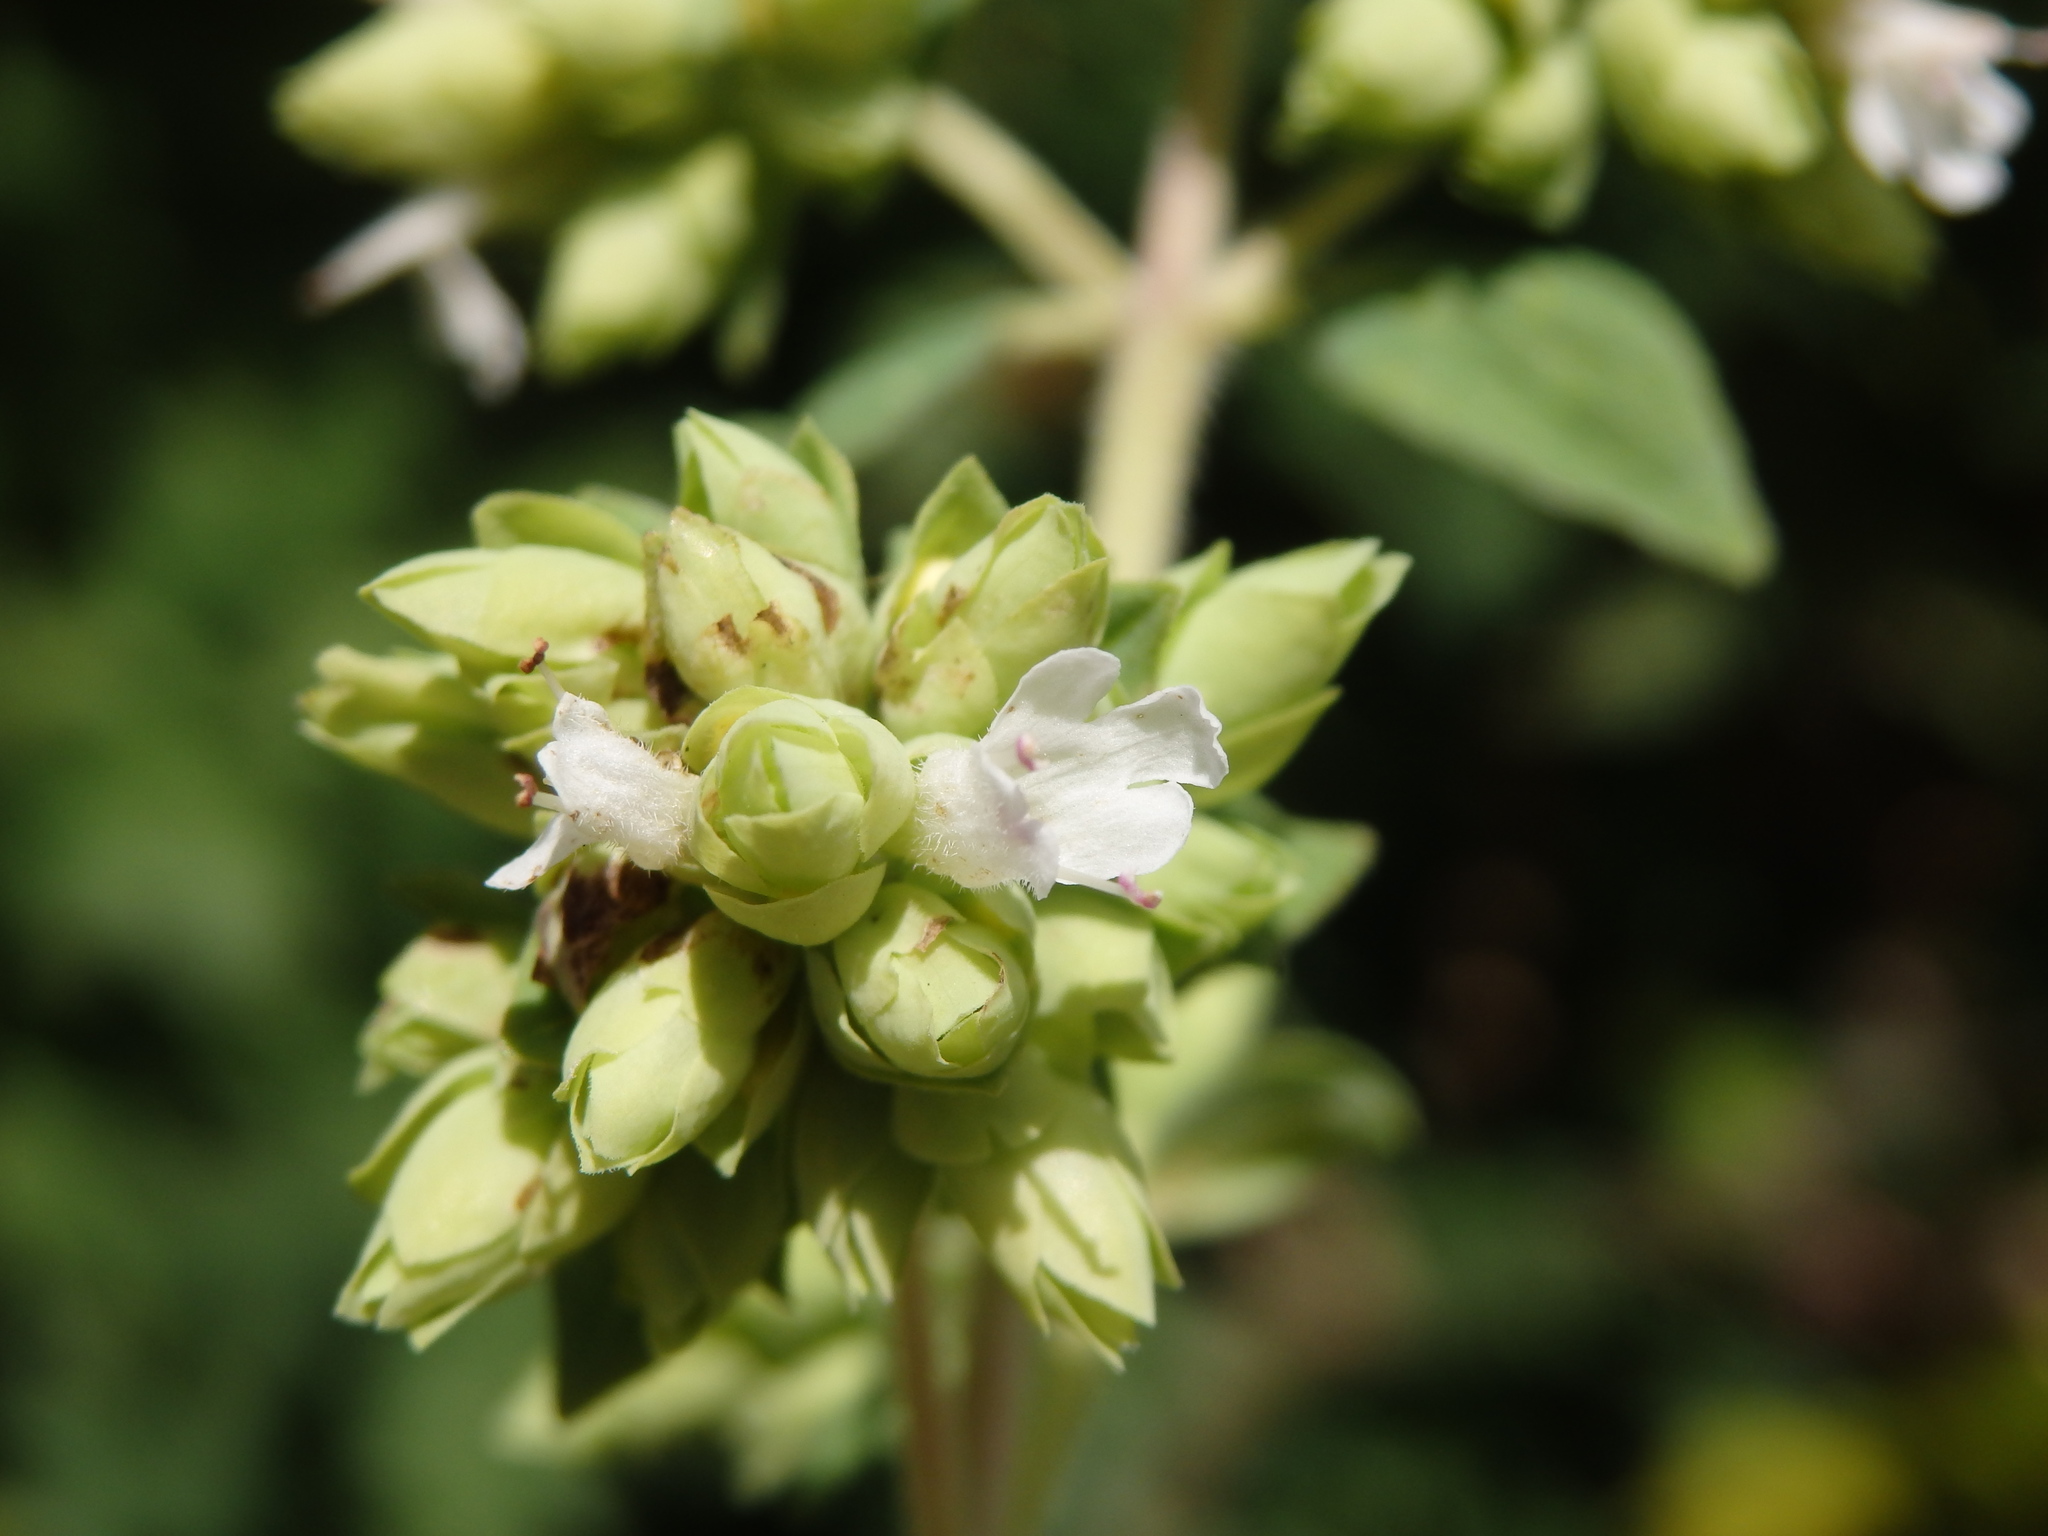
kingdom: Plantae
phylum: Tracheophyta
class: Magnoliopsida
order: Lamiales
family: Lamiaceae
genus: Origanum
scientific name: Origanum vulgare
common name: Wild marjoram
